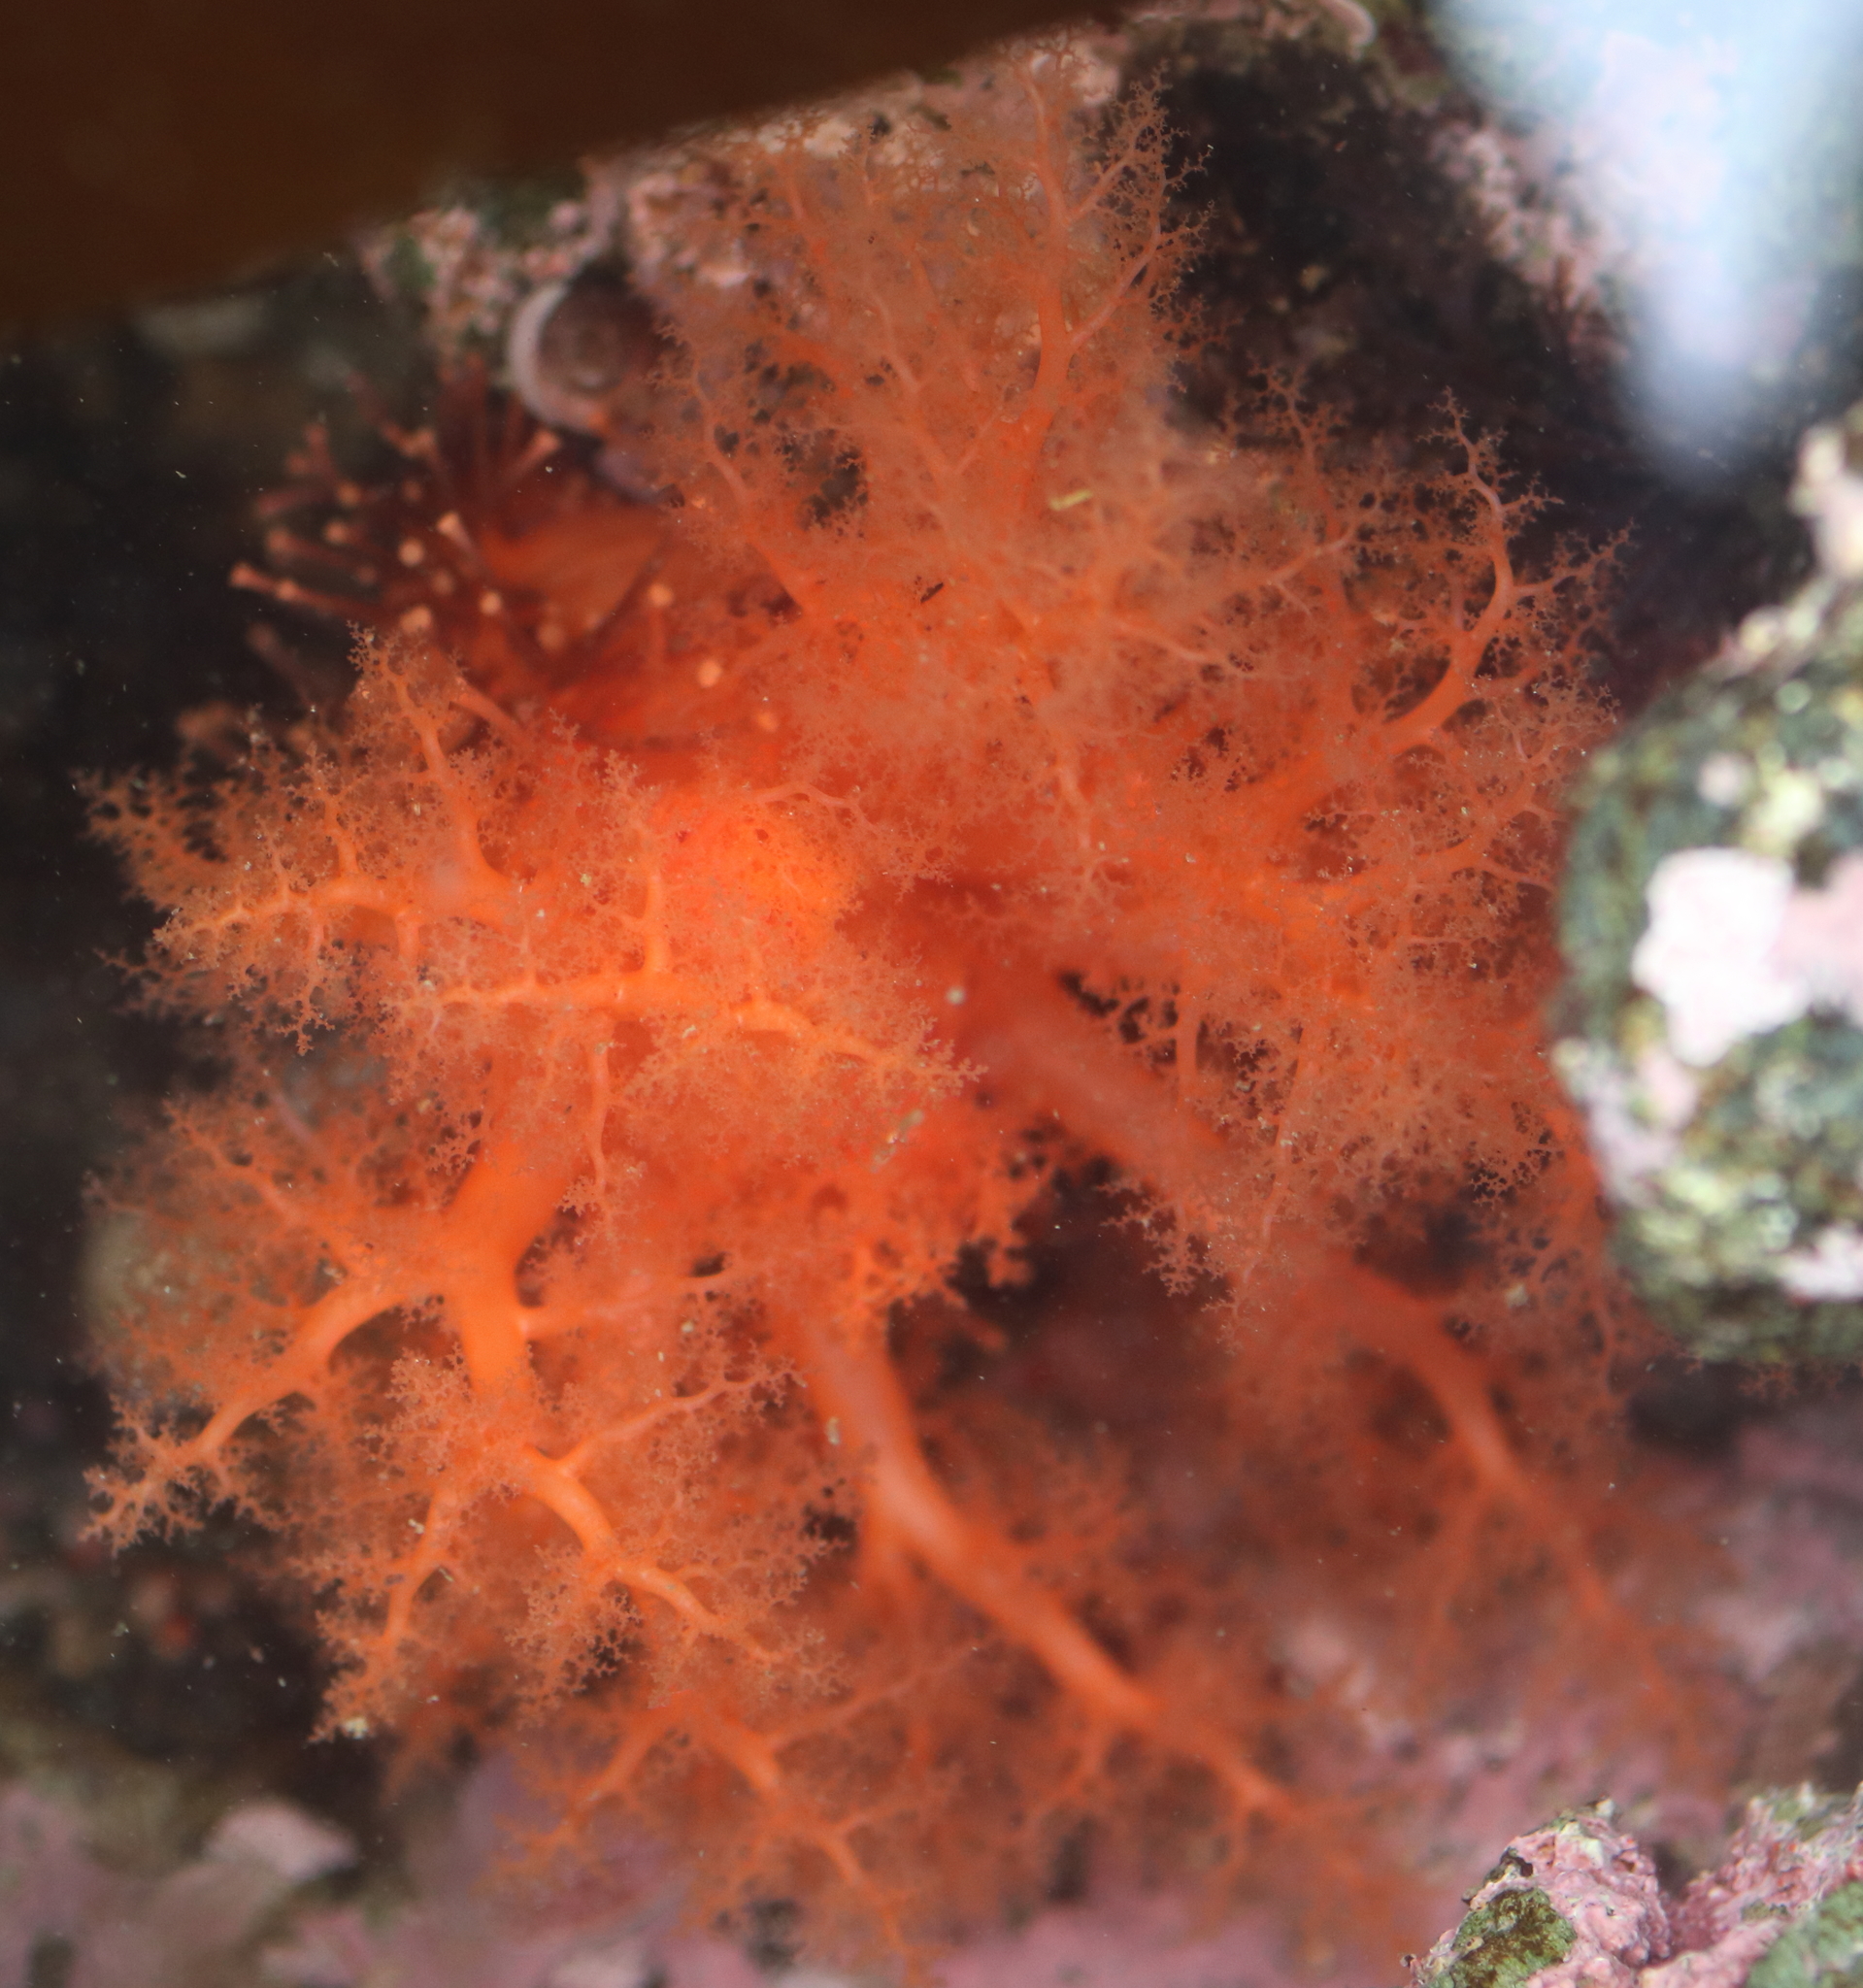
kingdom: Animalia
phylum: Echinodermata
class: Holothuroidea
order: Dendrochirotida
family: Cucumariidae
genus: Cucumaria
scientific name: Cucumaria miniata
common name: Orange sea cucumber
